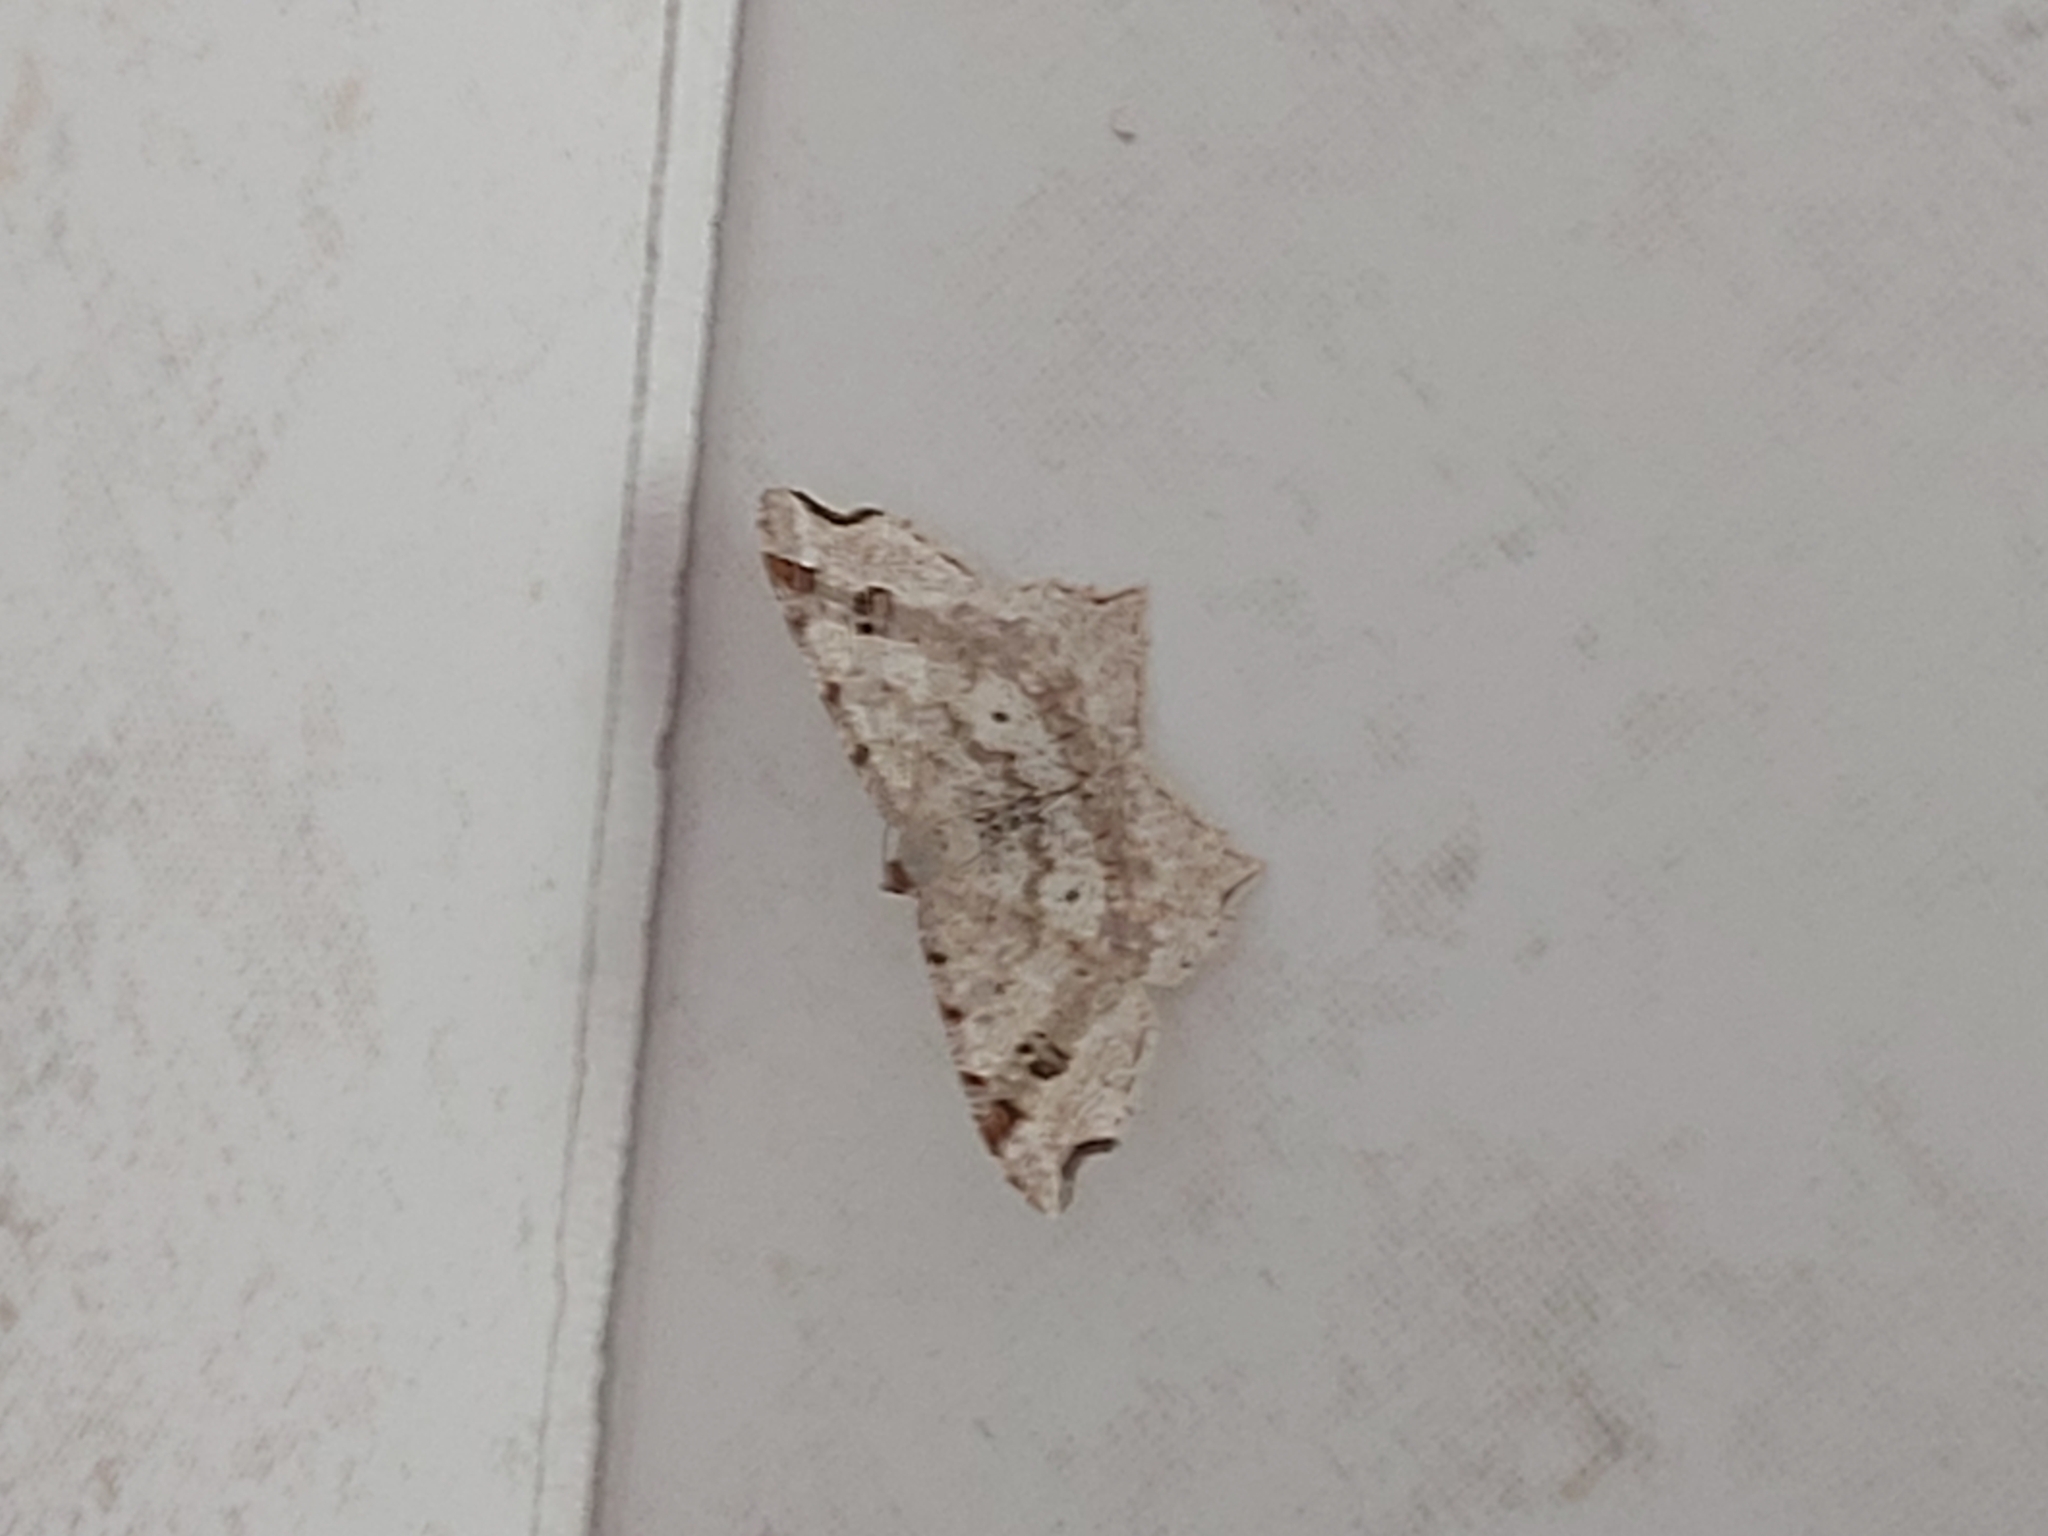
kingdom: Animalia
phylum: Arthropoda
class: Insecta
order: Lepidoptera
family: Geometridae
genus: Macaria
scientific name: Macaria alternata
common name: Sharp-angled peacock
